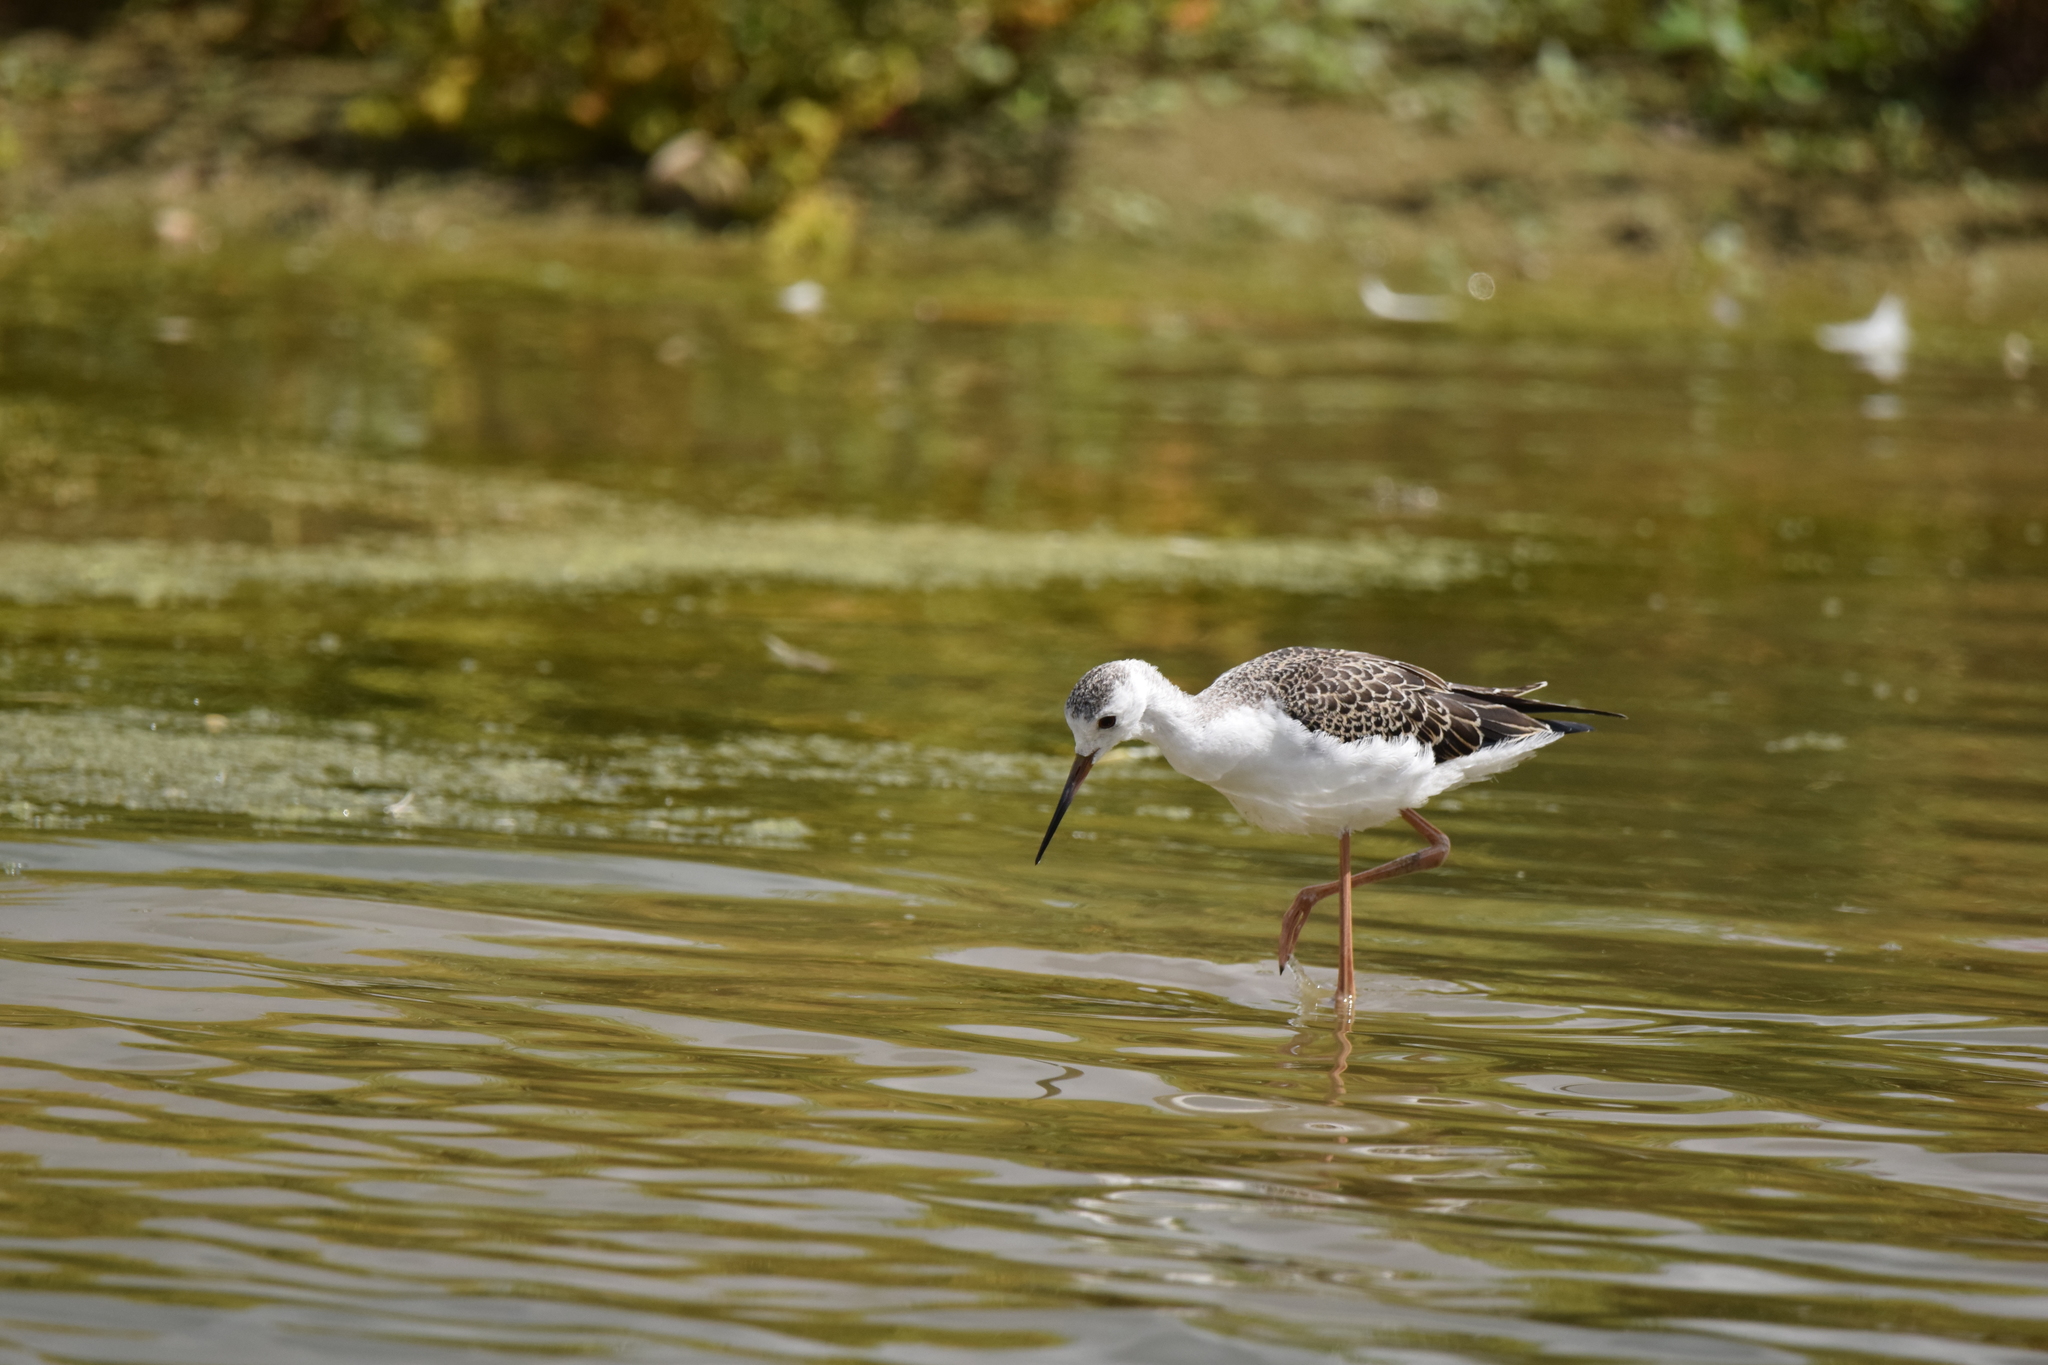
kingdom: Animalia
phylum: Chordata
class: Aves
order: Charadriiformes
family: Recurvirostridae
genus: Himantopus
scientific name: Himantopus himantopus
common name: Black-winged stilt
